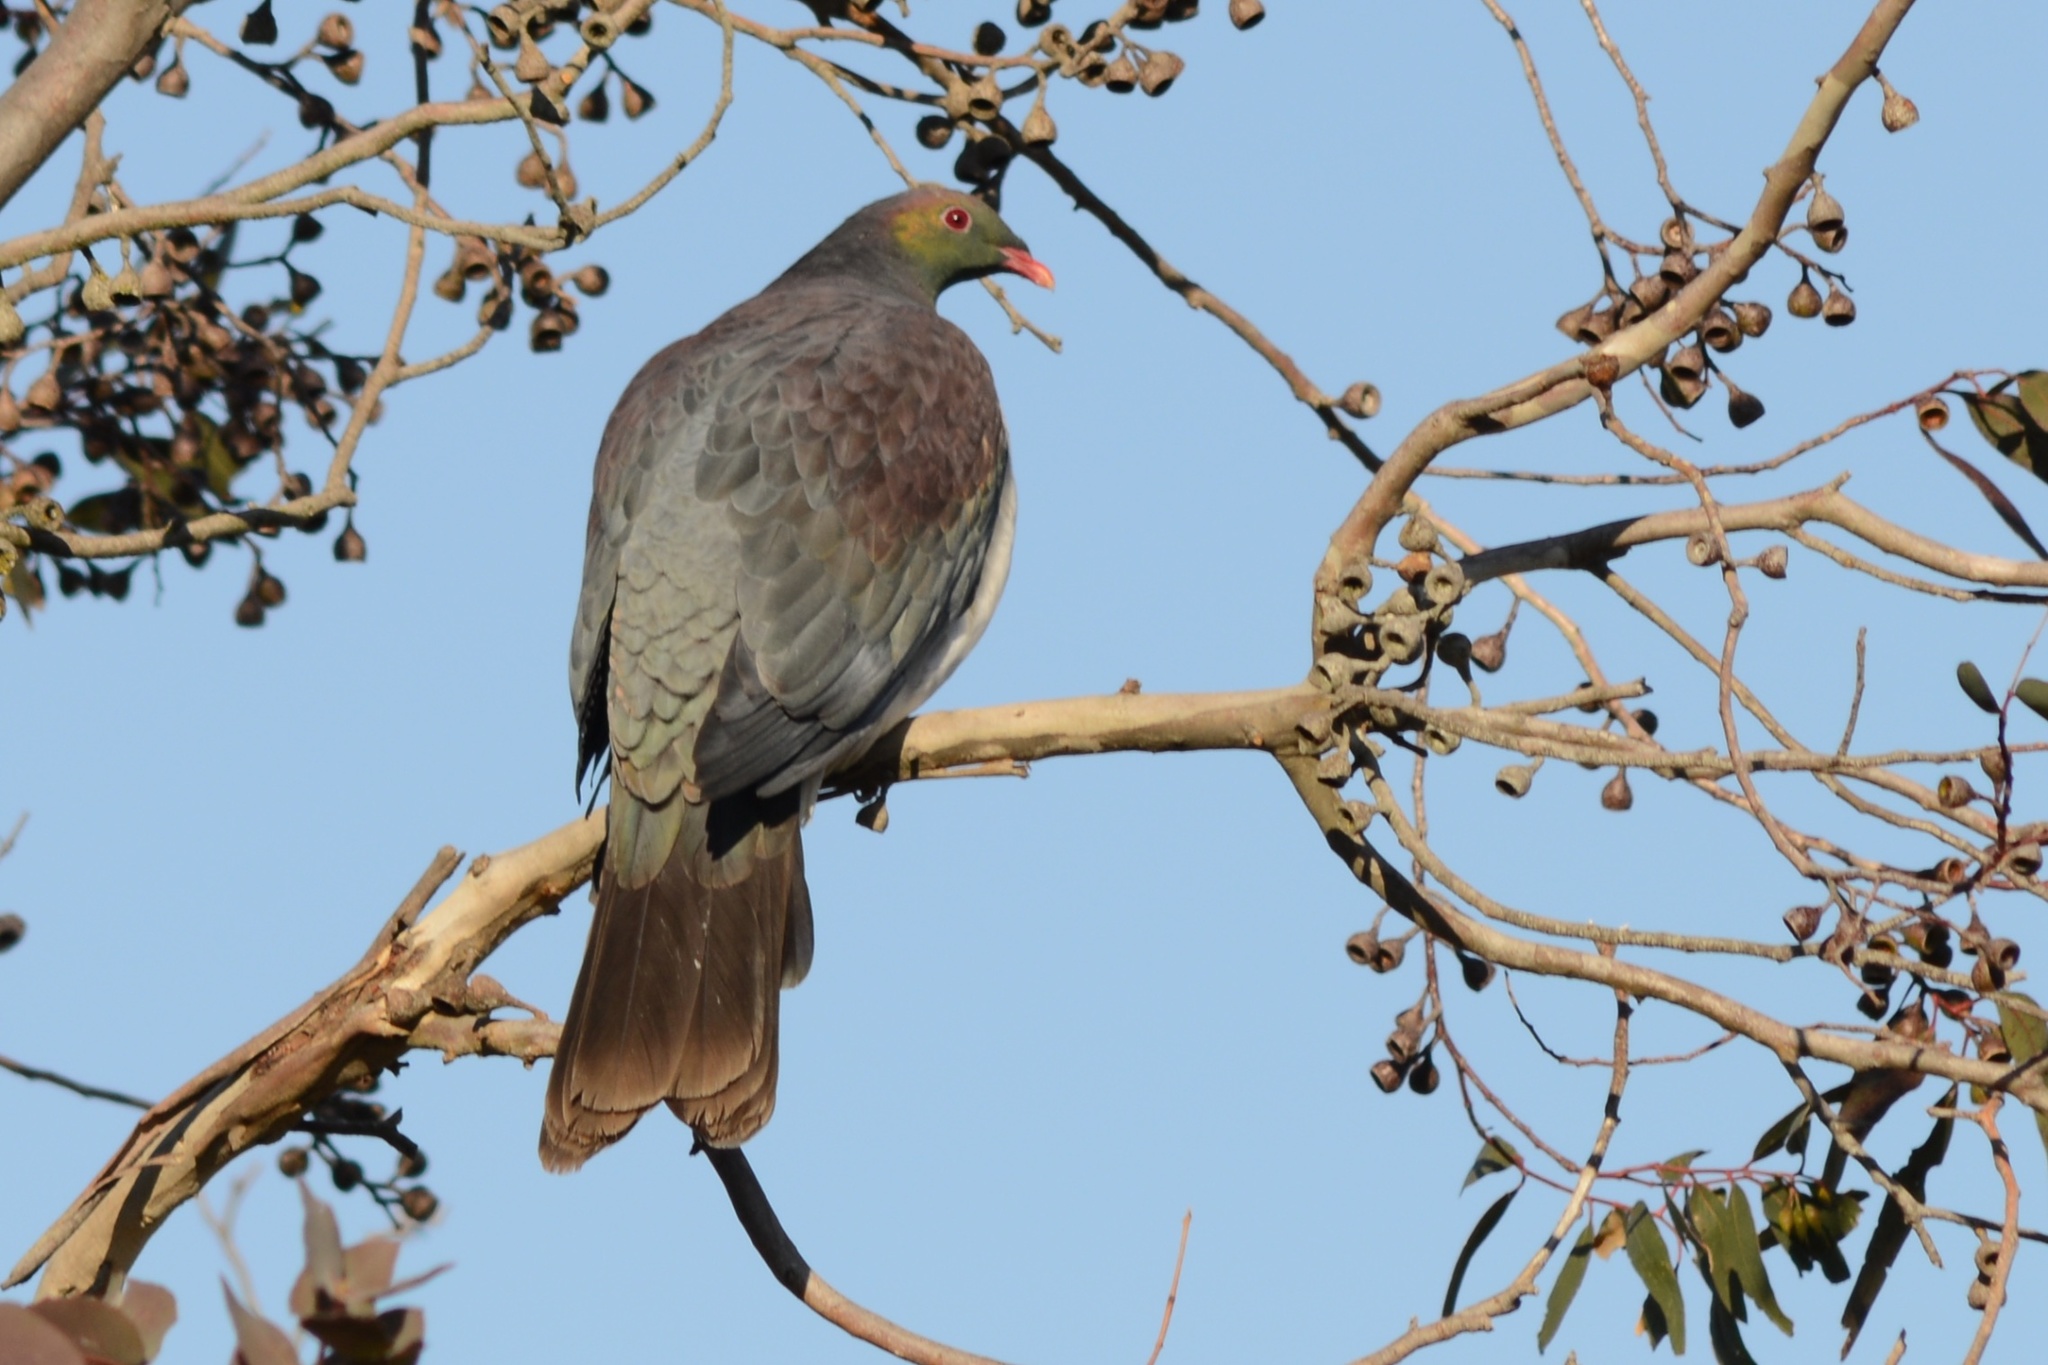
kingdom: Animalia
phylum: Chordata
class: Aves
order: Columbiformes
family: Columbidae
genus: Hemiphaga
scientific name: Hemiphaga novaeseelandiae
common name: New zealand pigeon
